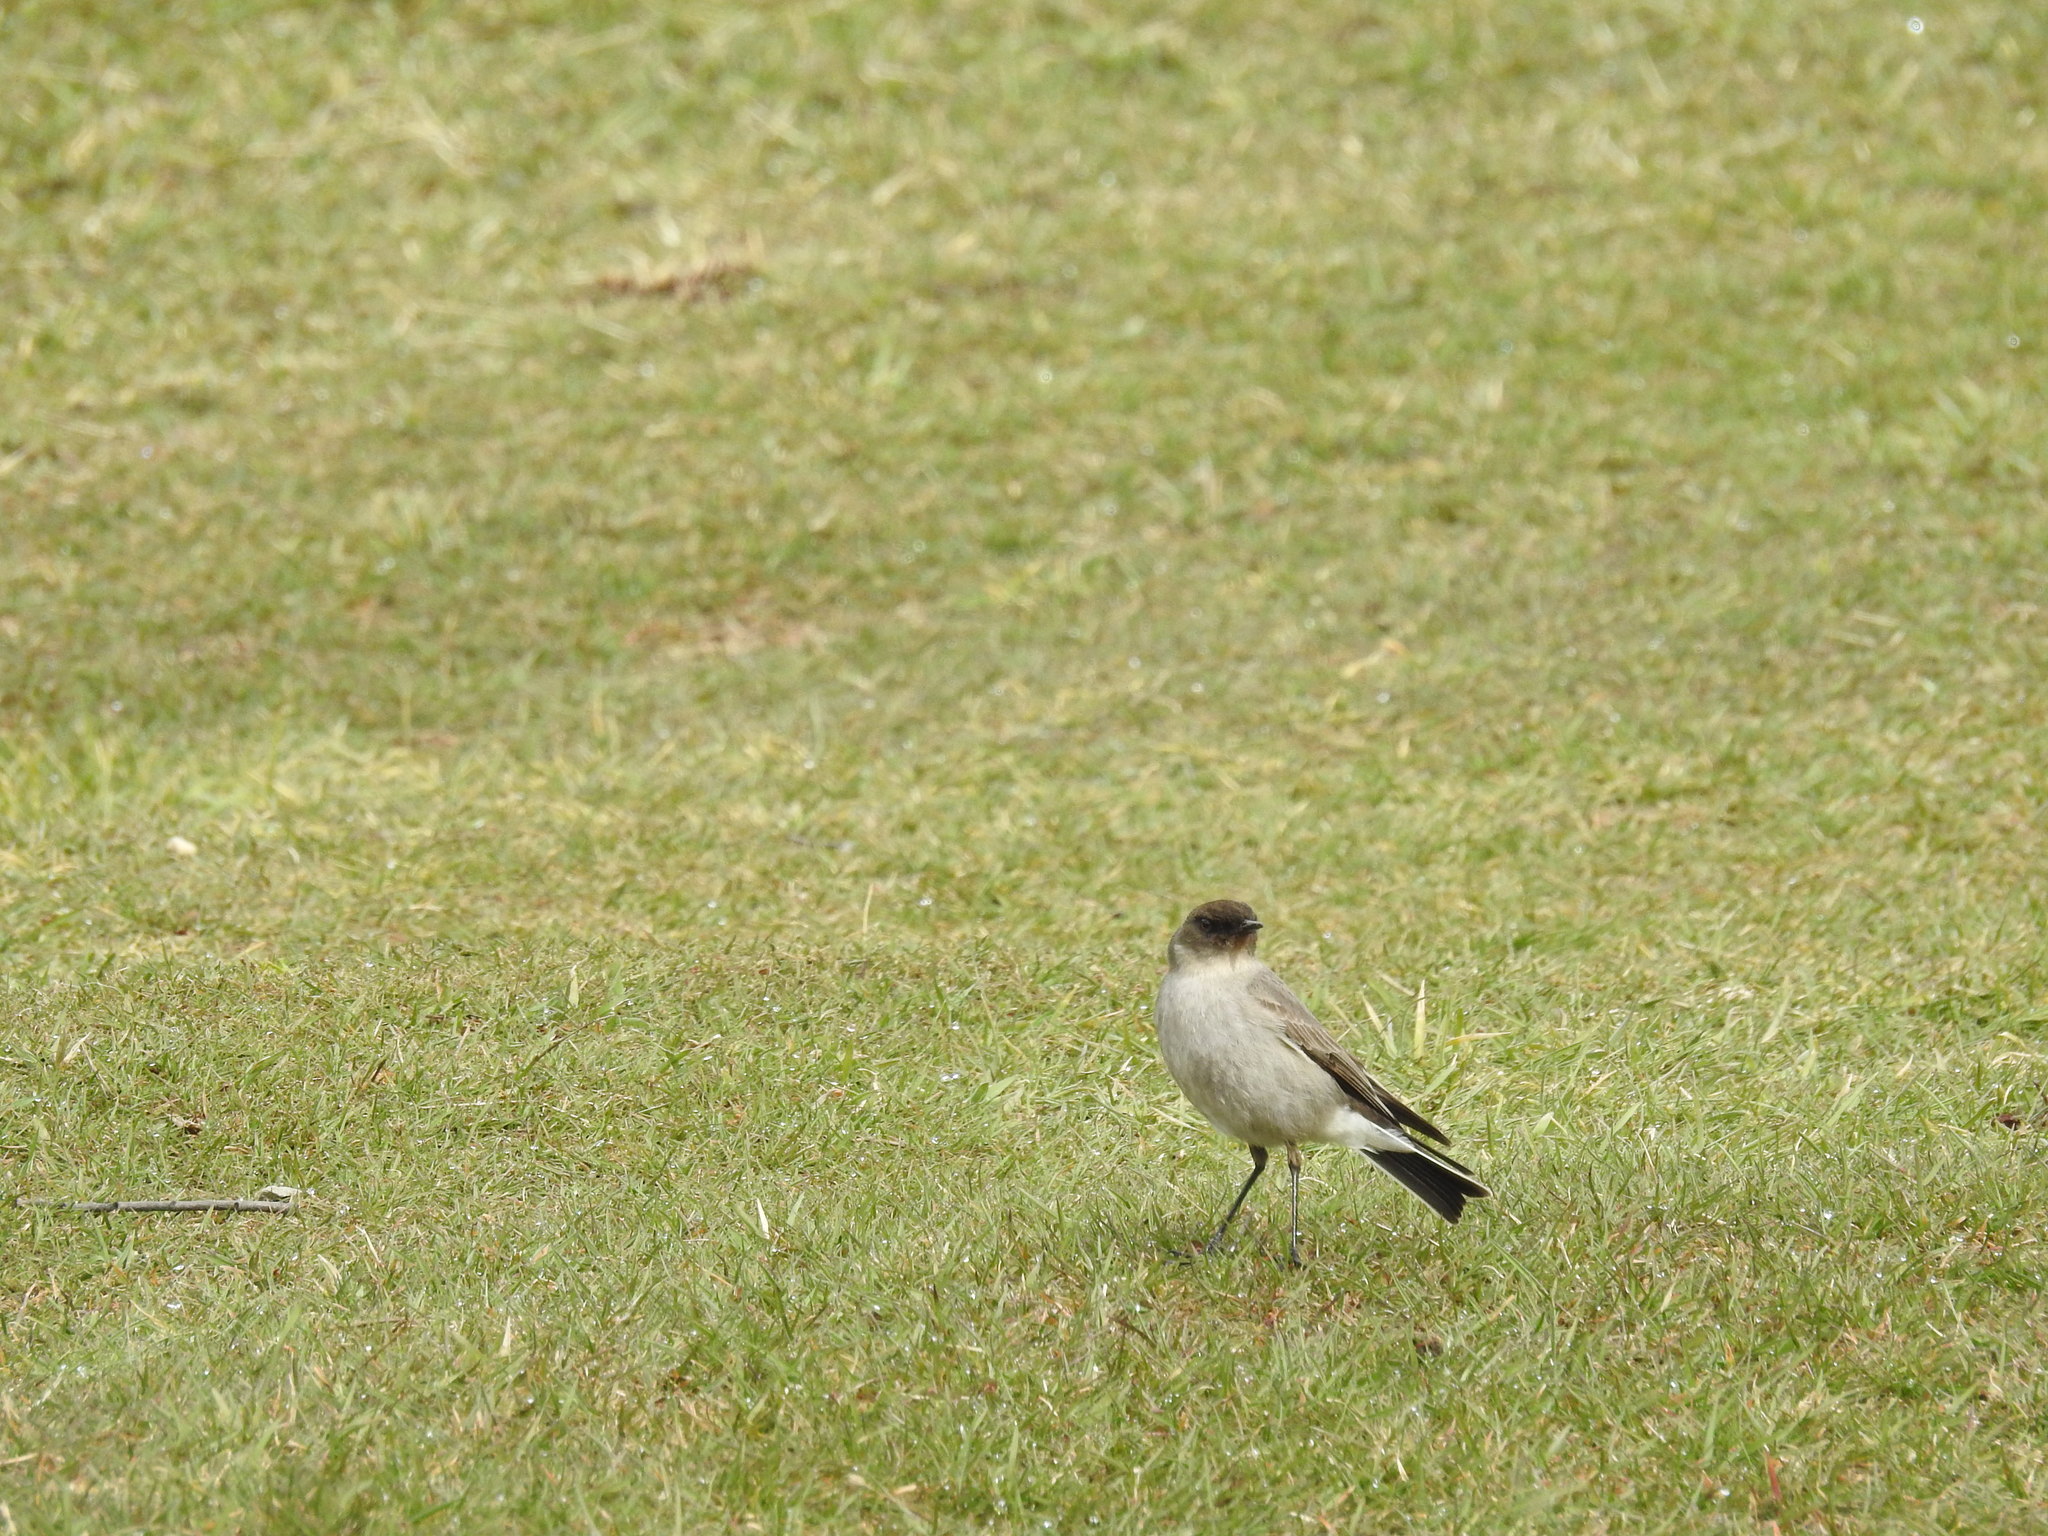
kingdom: Animalia
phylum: Chordata
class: Aves
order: Passeriformes
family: Tyrannidae
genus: Muscisaxicola
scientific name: Muscisaxicola maclovianus
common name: Dark-faced ground tyrant
